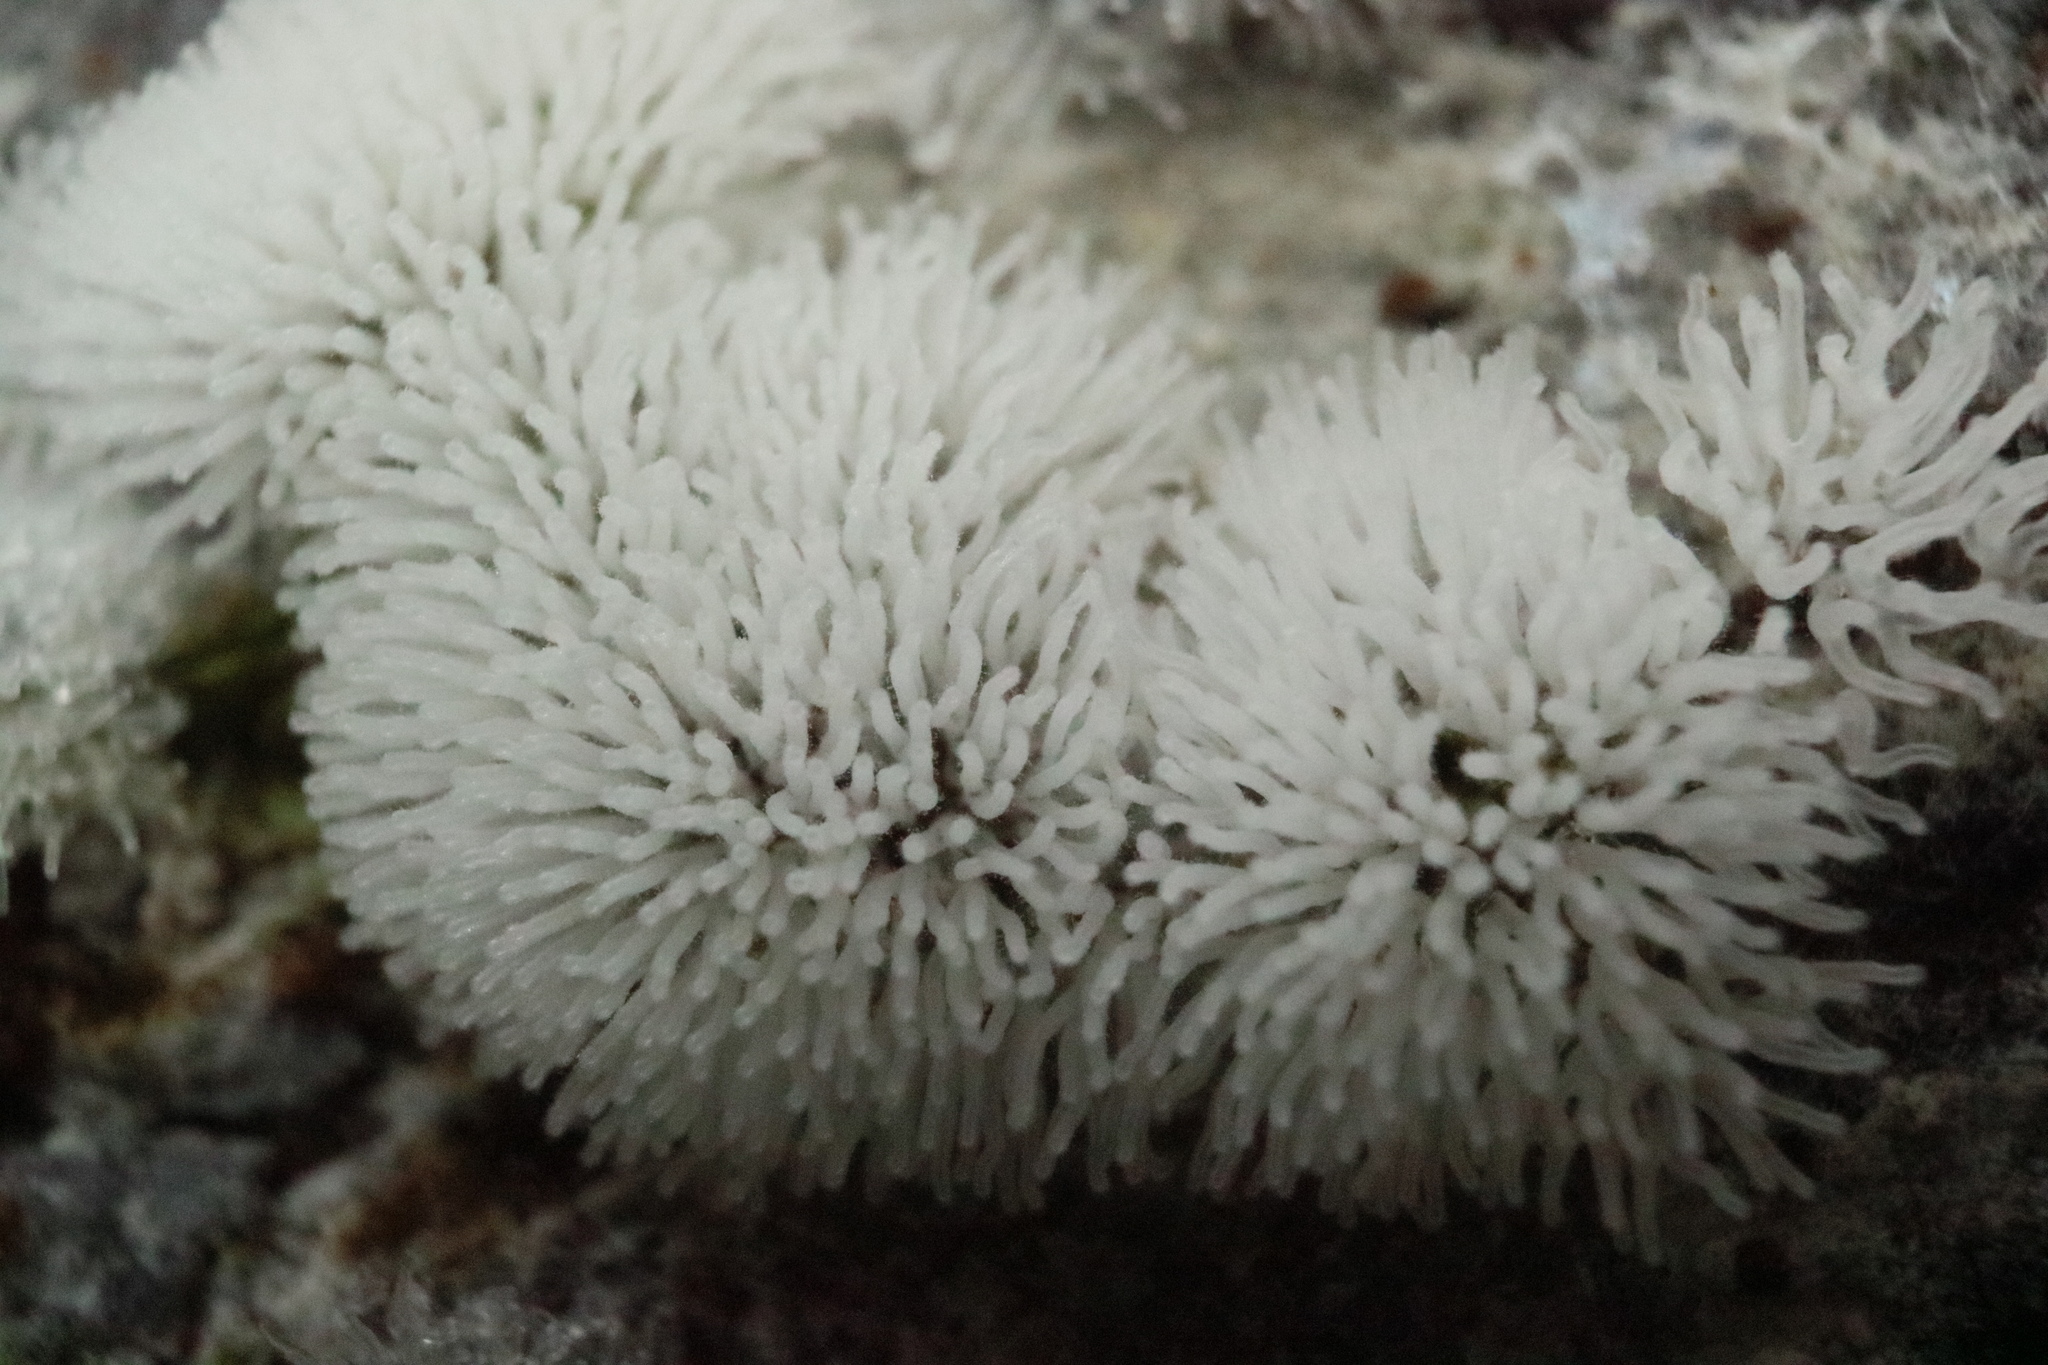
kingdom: Protozoa
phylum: Mycetozoa
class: Protosteliomycetes
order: Ceratiomyxales
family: Ceratiomyxaceae
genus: Ceratiomyxa
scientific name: Ceratiomyxa fruticulosa
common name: Honeycomb coral slime mold
